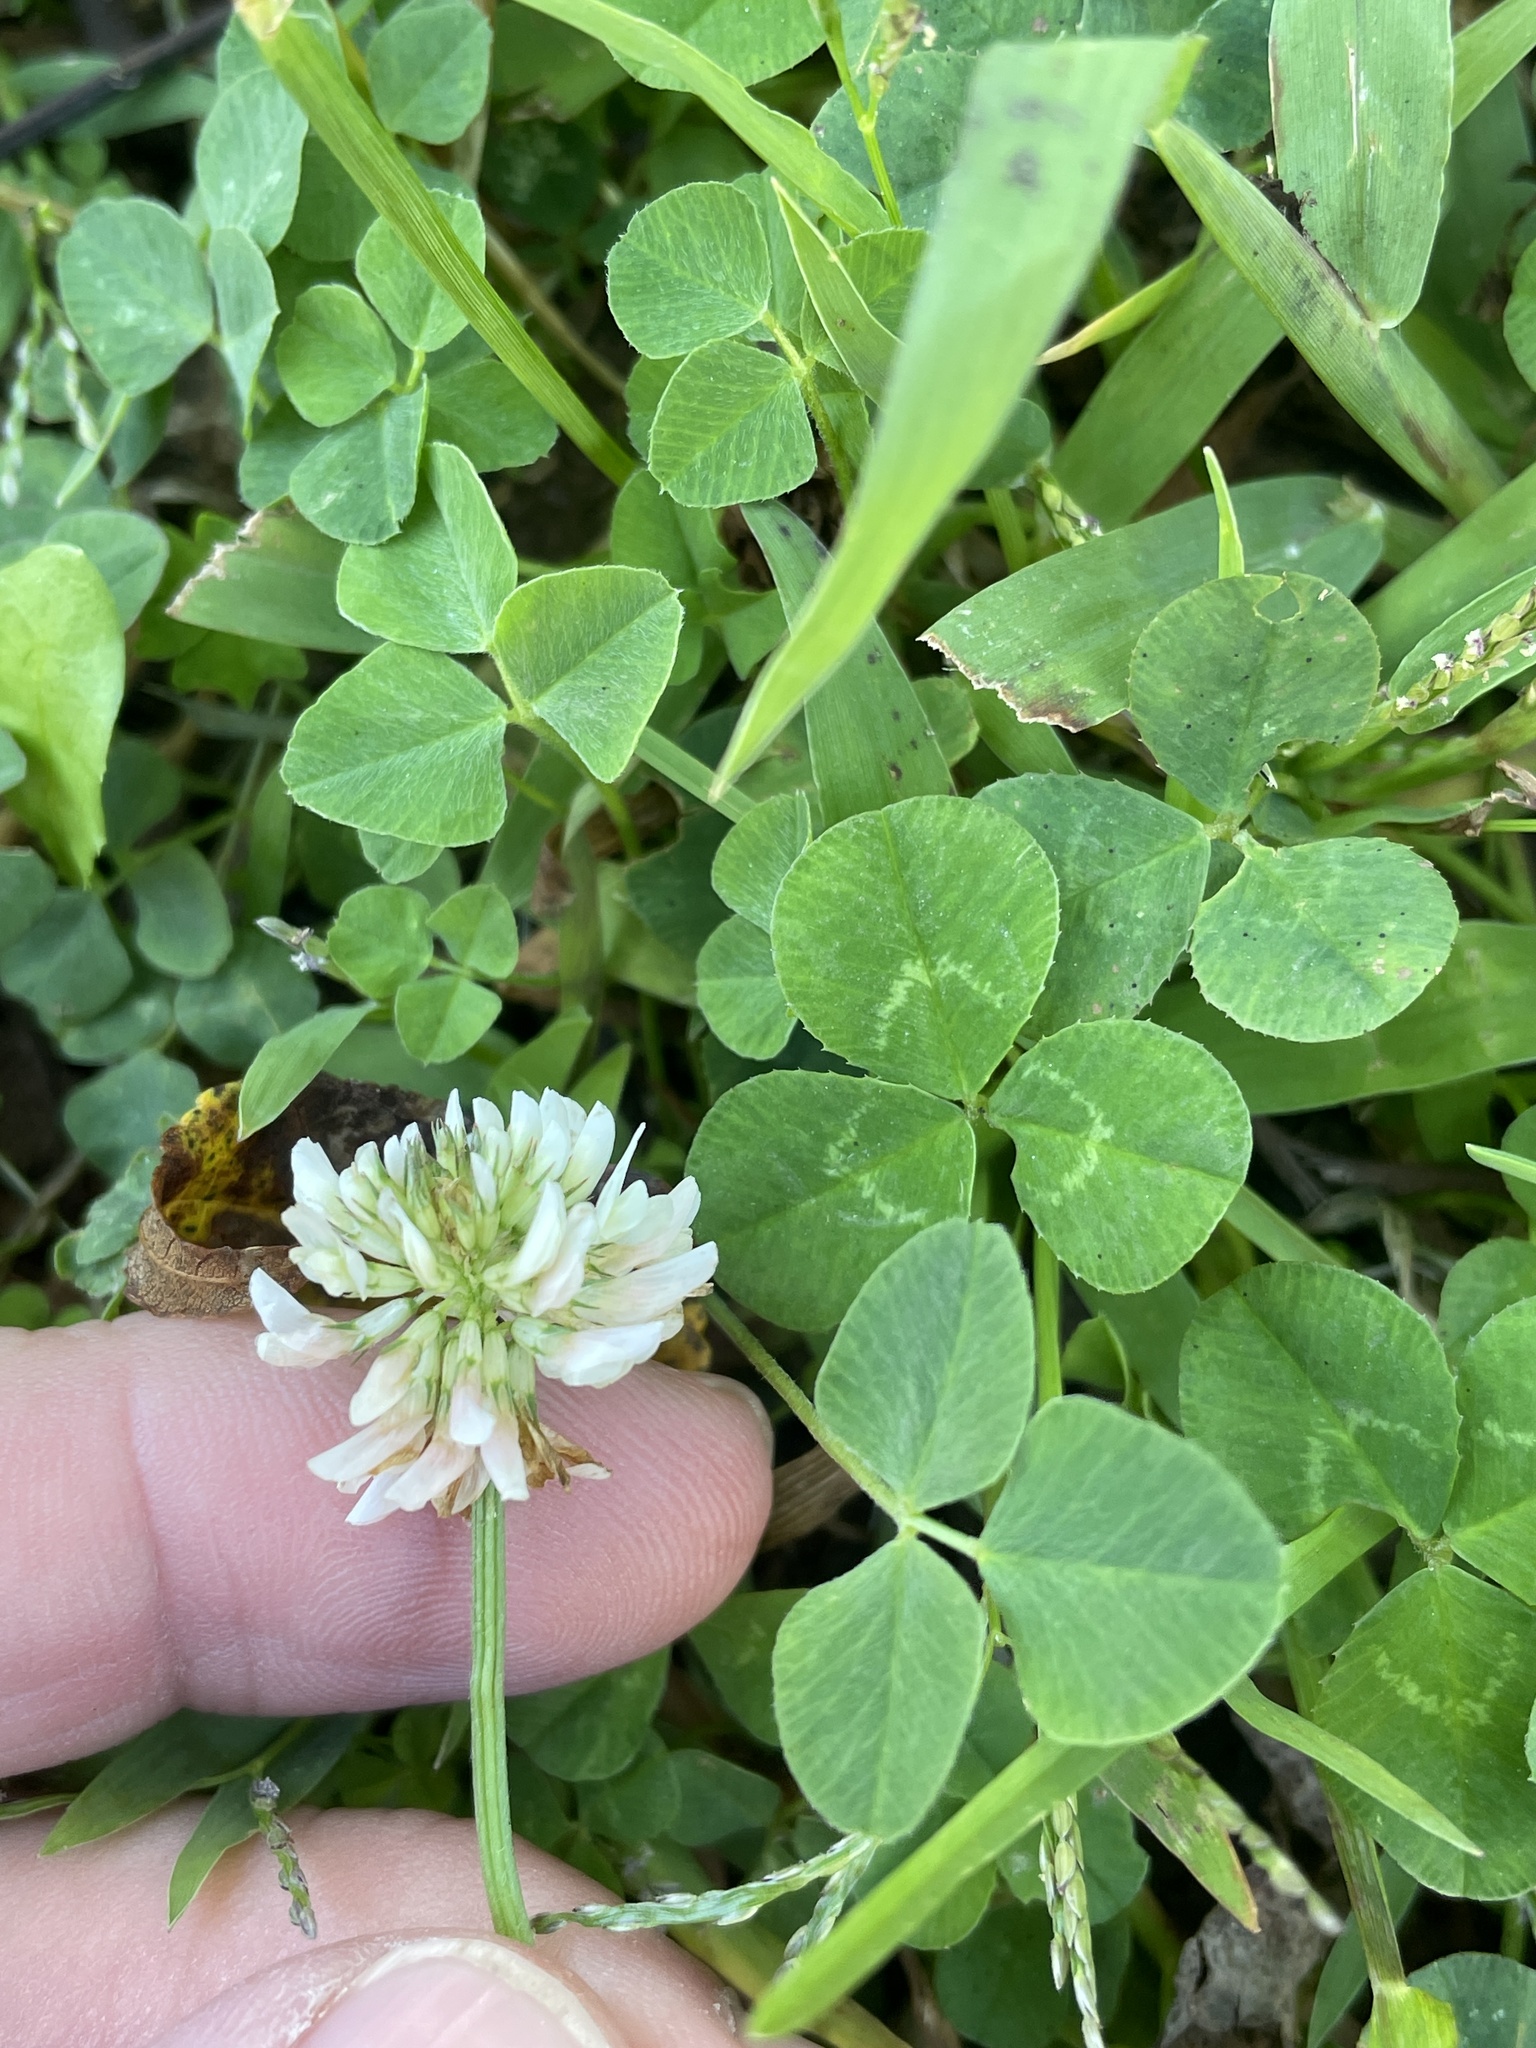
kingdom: Plantae
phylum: Tracheophyta
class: Magnoliopsida
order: Fabales
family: Fabaceae
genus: Trifolium
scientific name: Trifolium repens
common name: White clover
